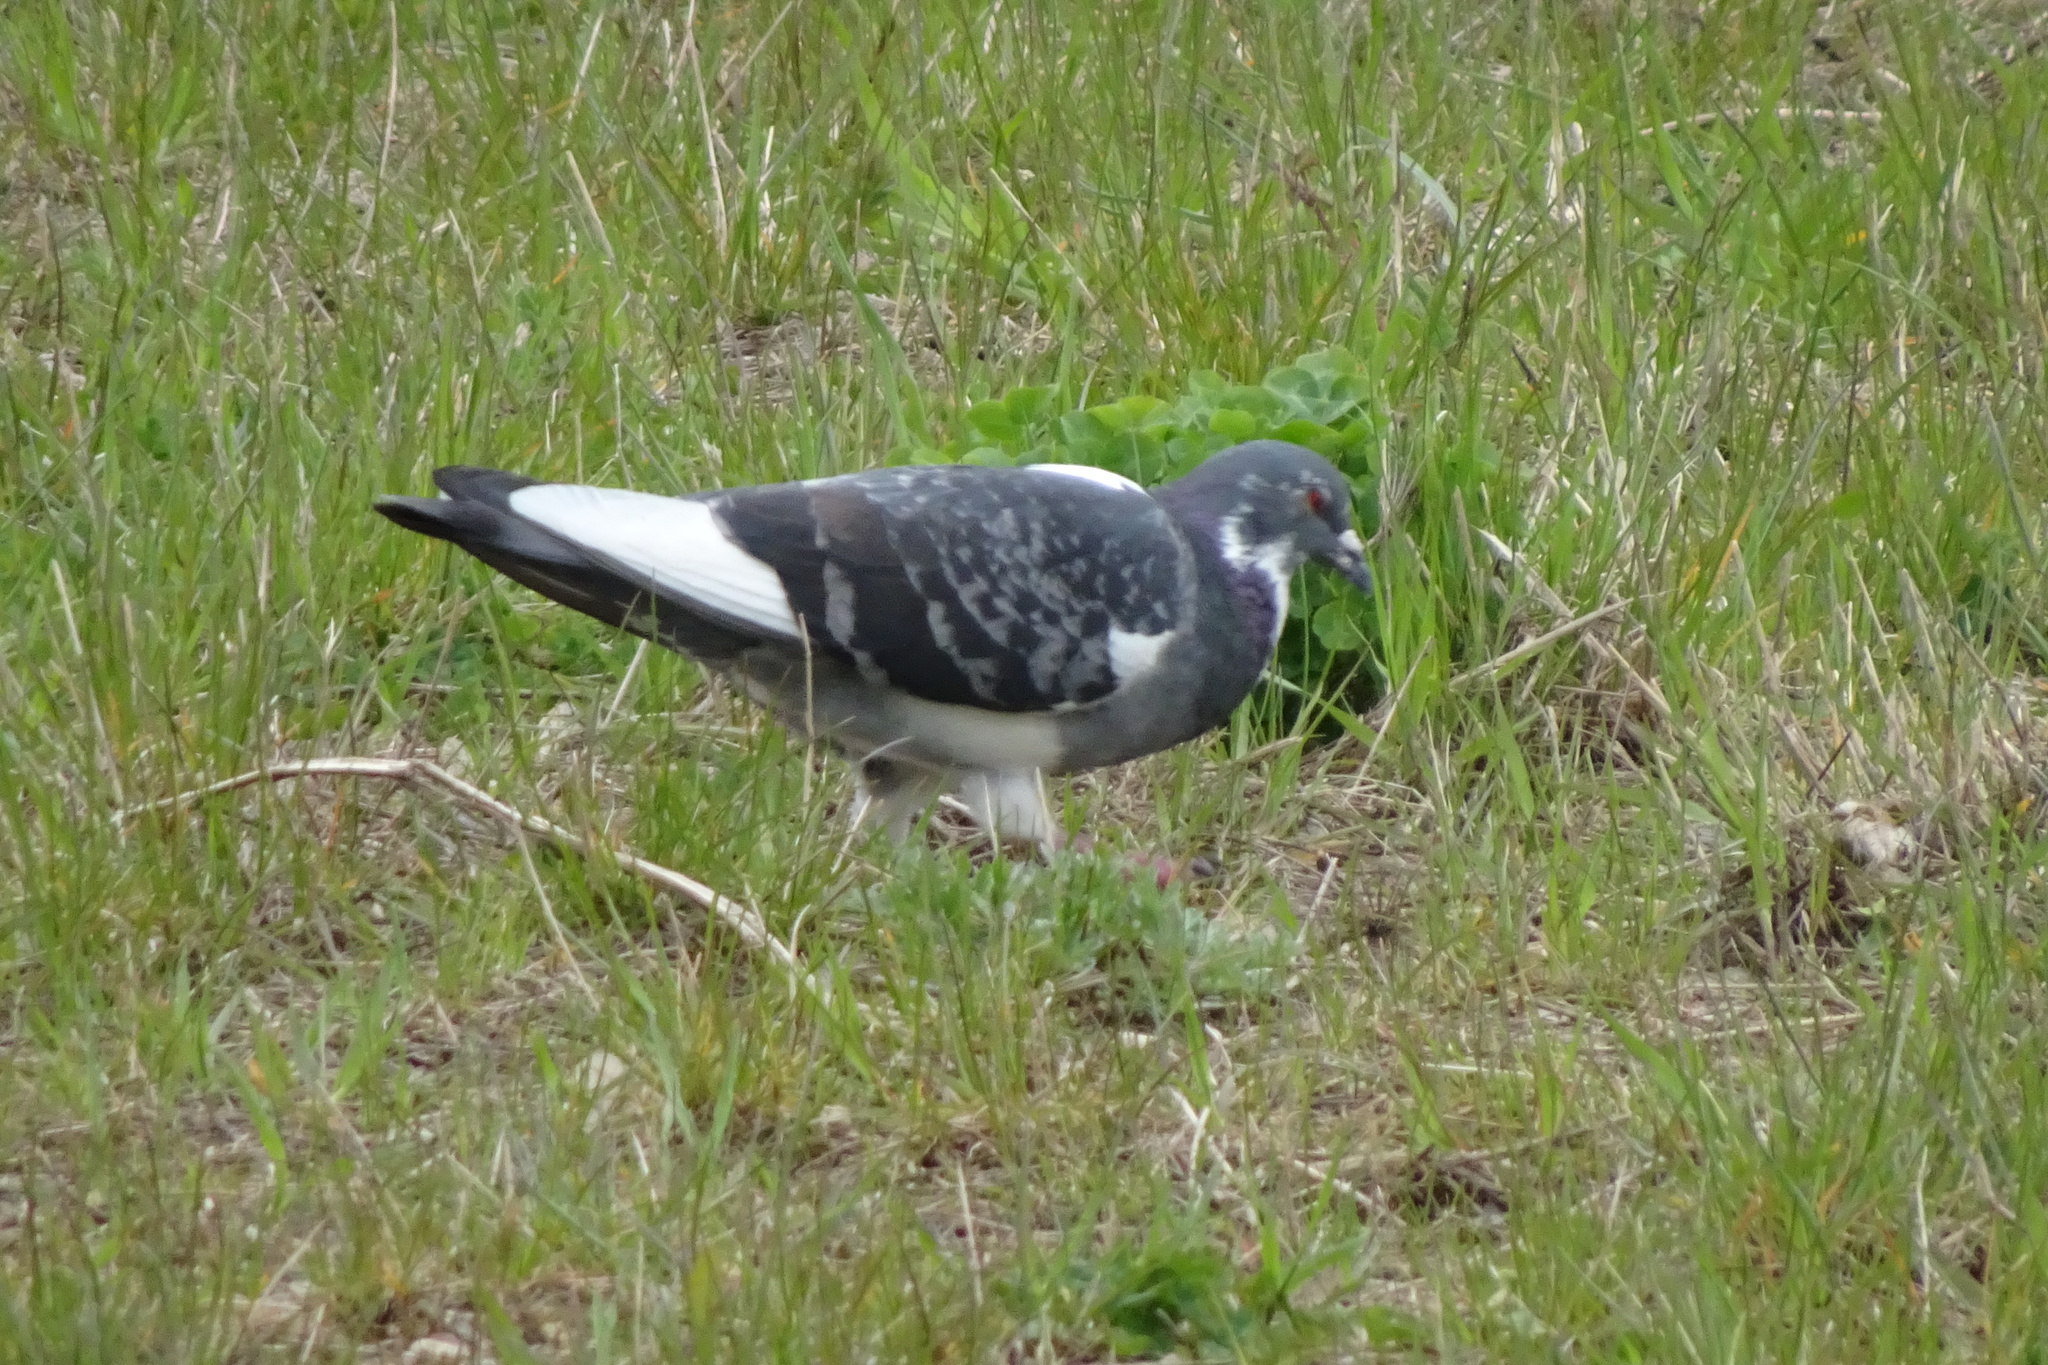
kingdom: Animalia
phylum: Chordata
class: Aves
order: Columbiformes
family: Columbidae
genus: Columba
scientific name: Columba livia
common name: Rock pigeon
